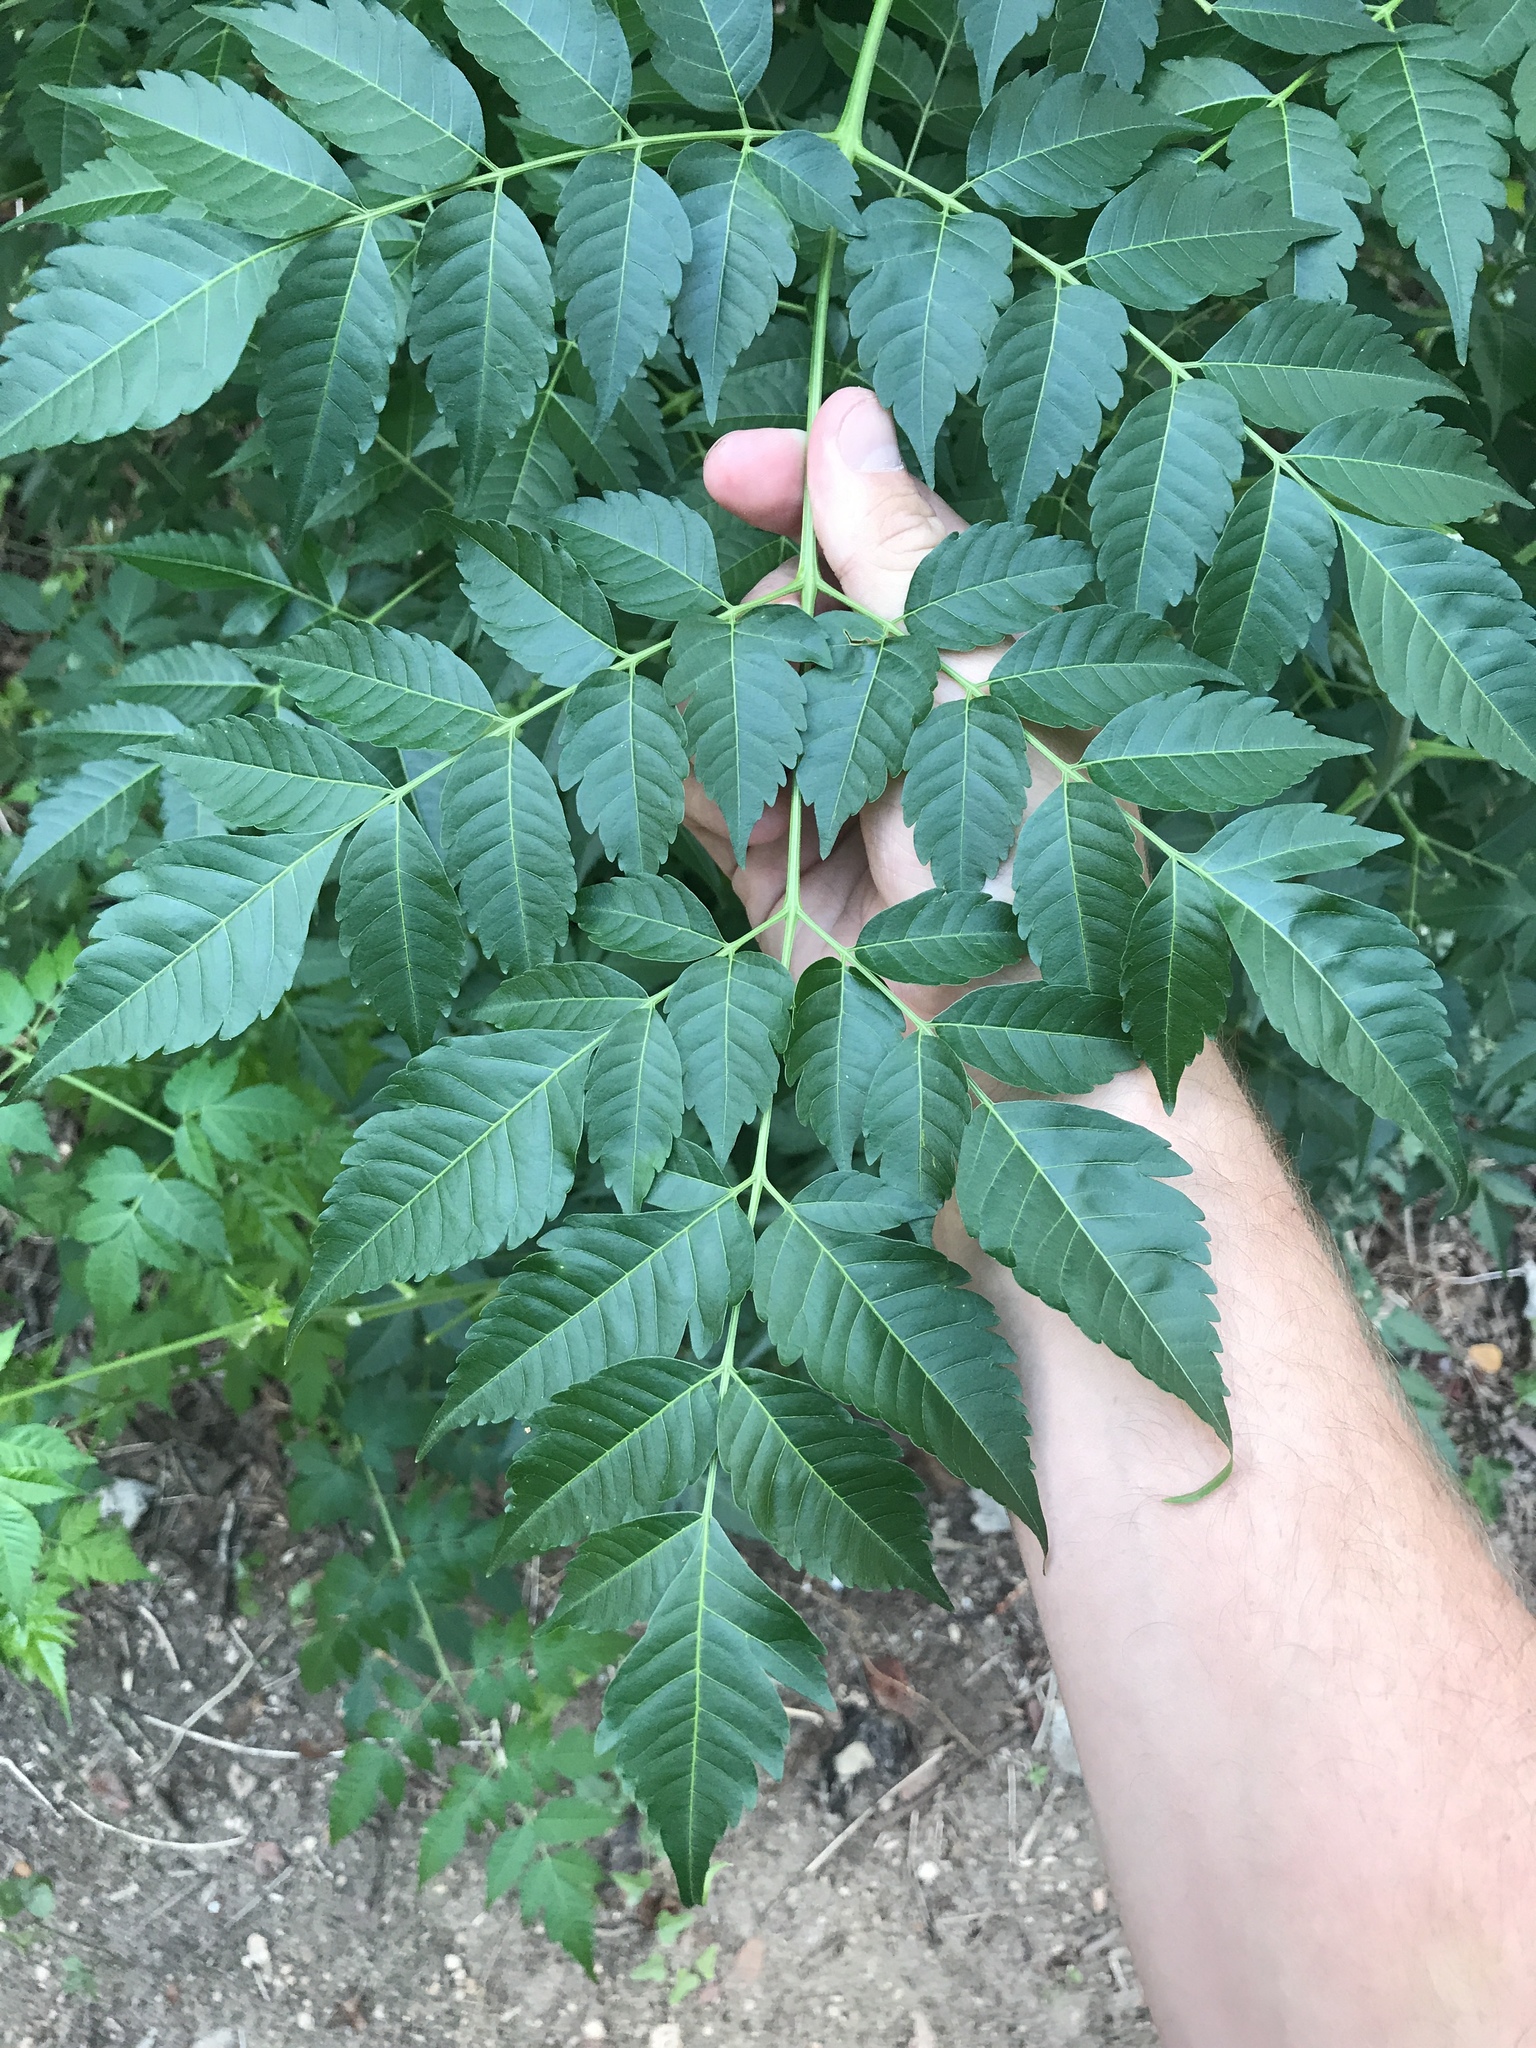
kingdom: Plantae
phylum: Tracheophyta
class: Magnoliopsida
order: Sapindales
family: Meliaceae
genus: Melia
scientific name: Melia azedarach
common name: Chinaberrytree
